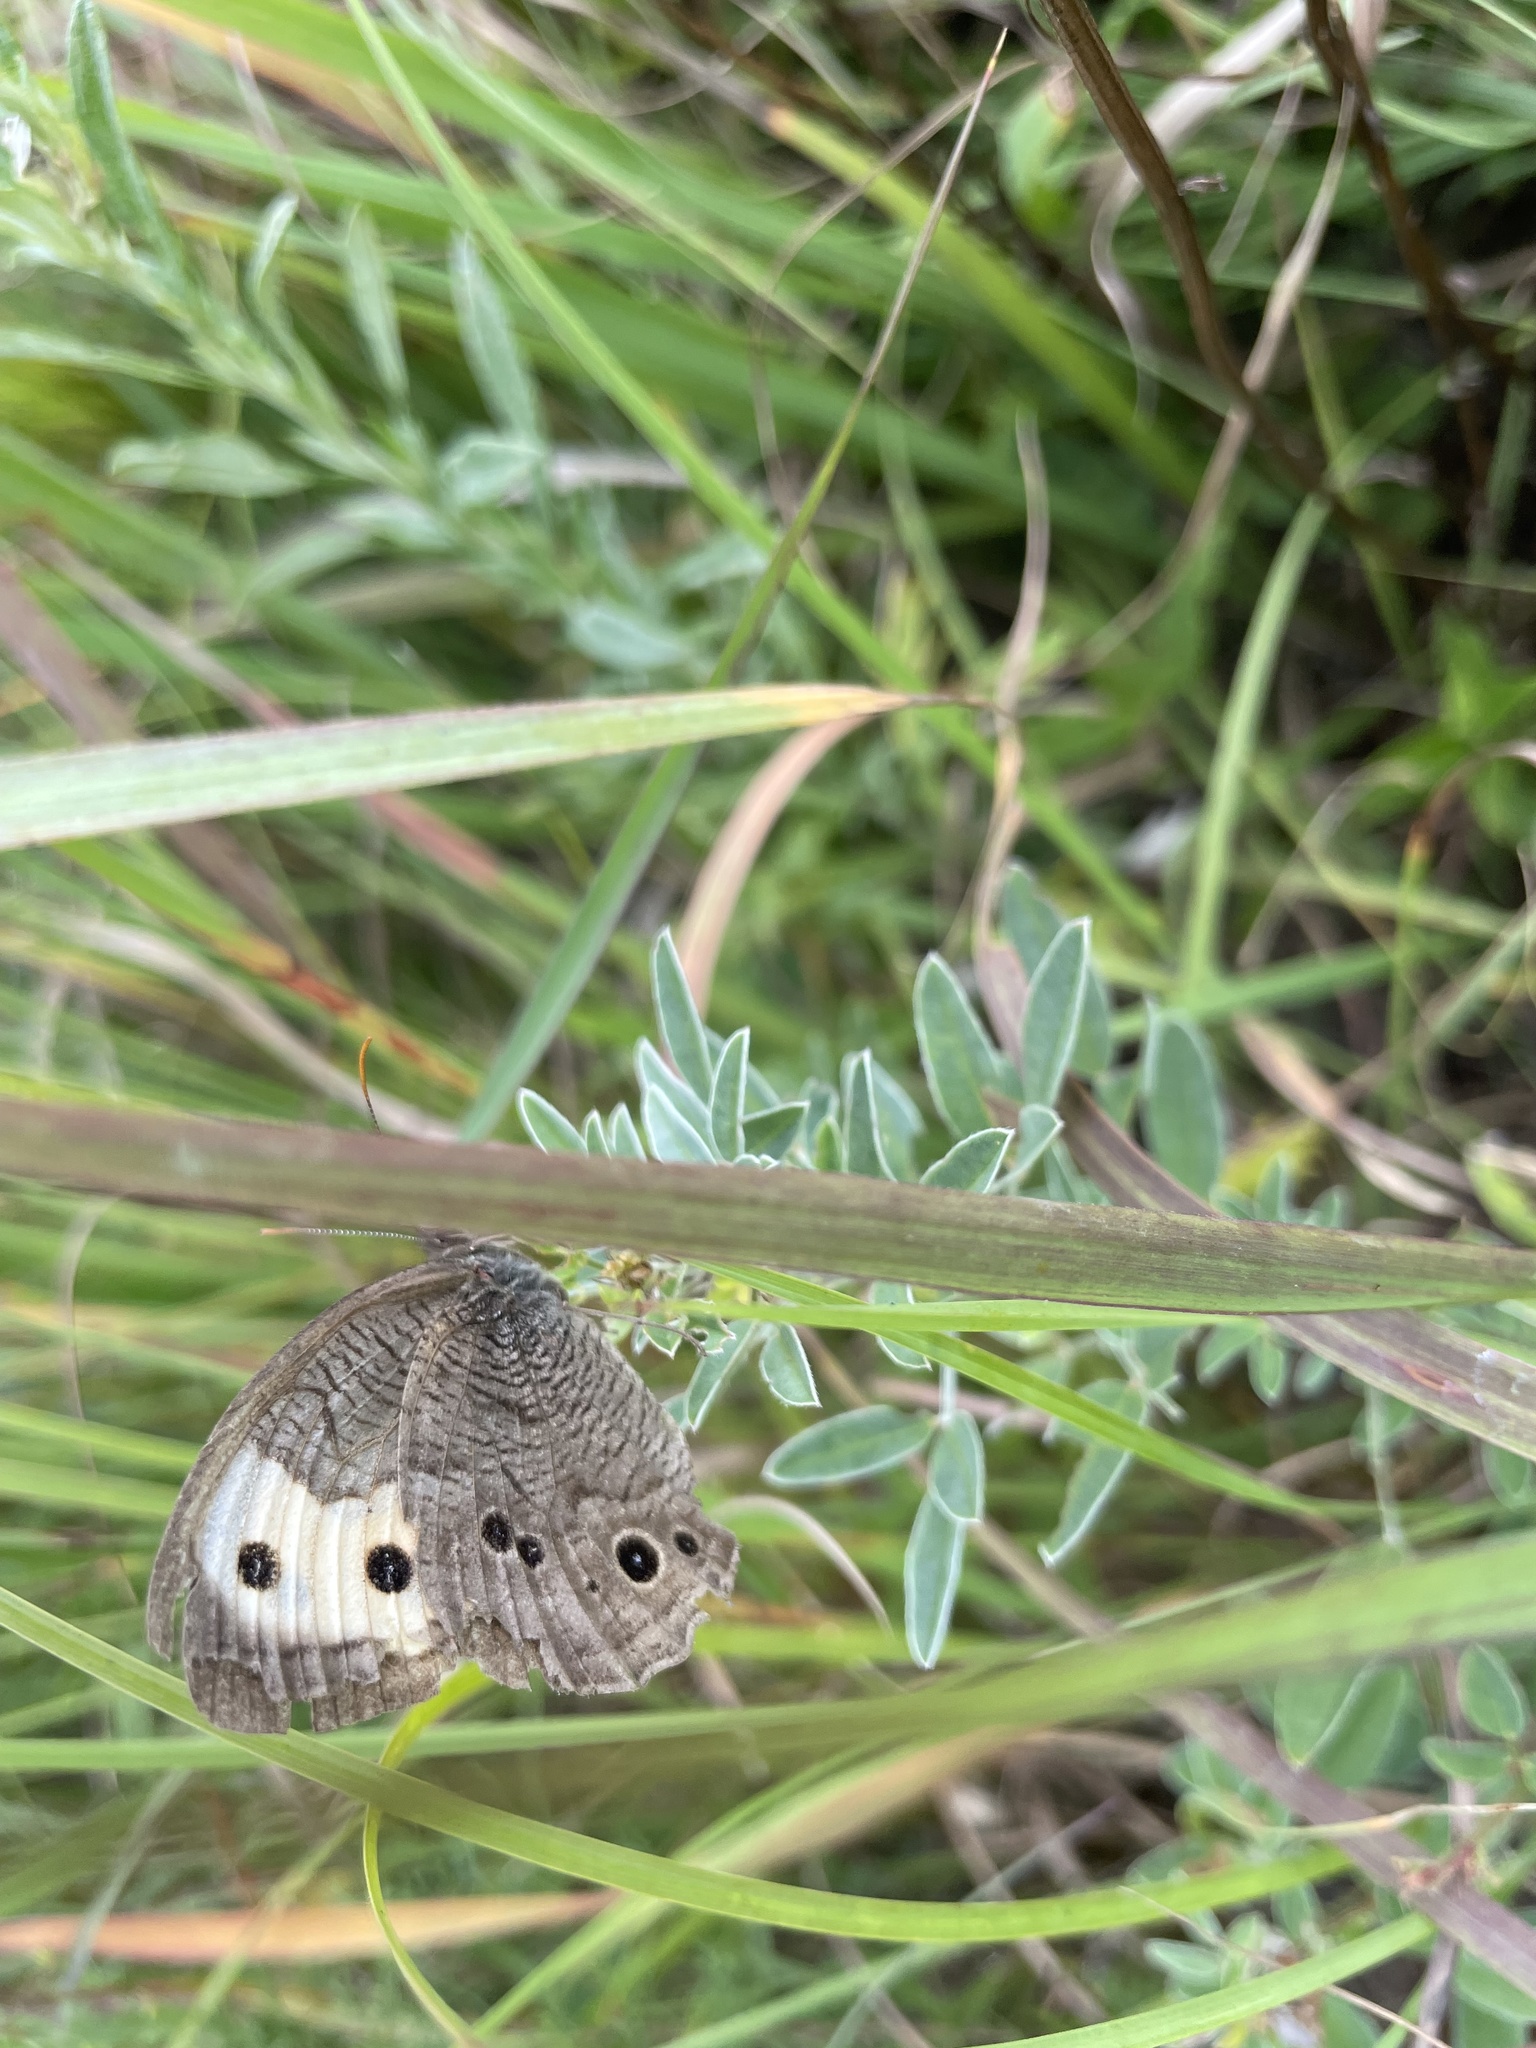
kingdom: Animalia
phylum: Arthropoda
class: Insecta
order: Lepidoptera
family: Nymphalidae
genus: Cercyonis
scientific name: Cercyonis pegala
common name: Common wood-nymph
